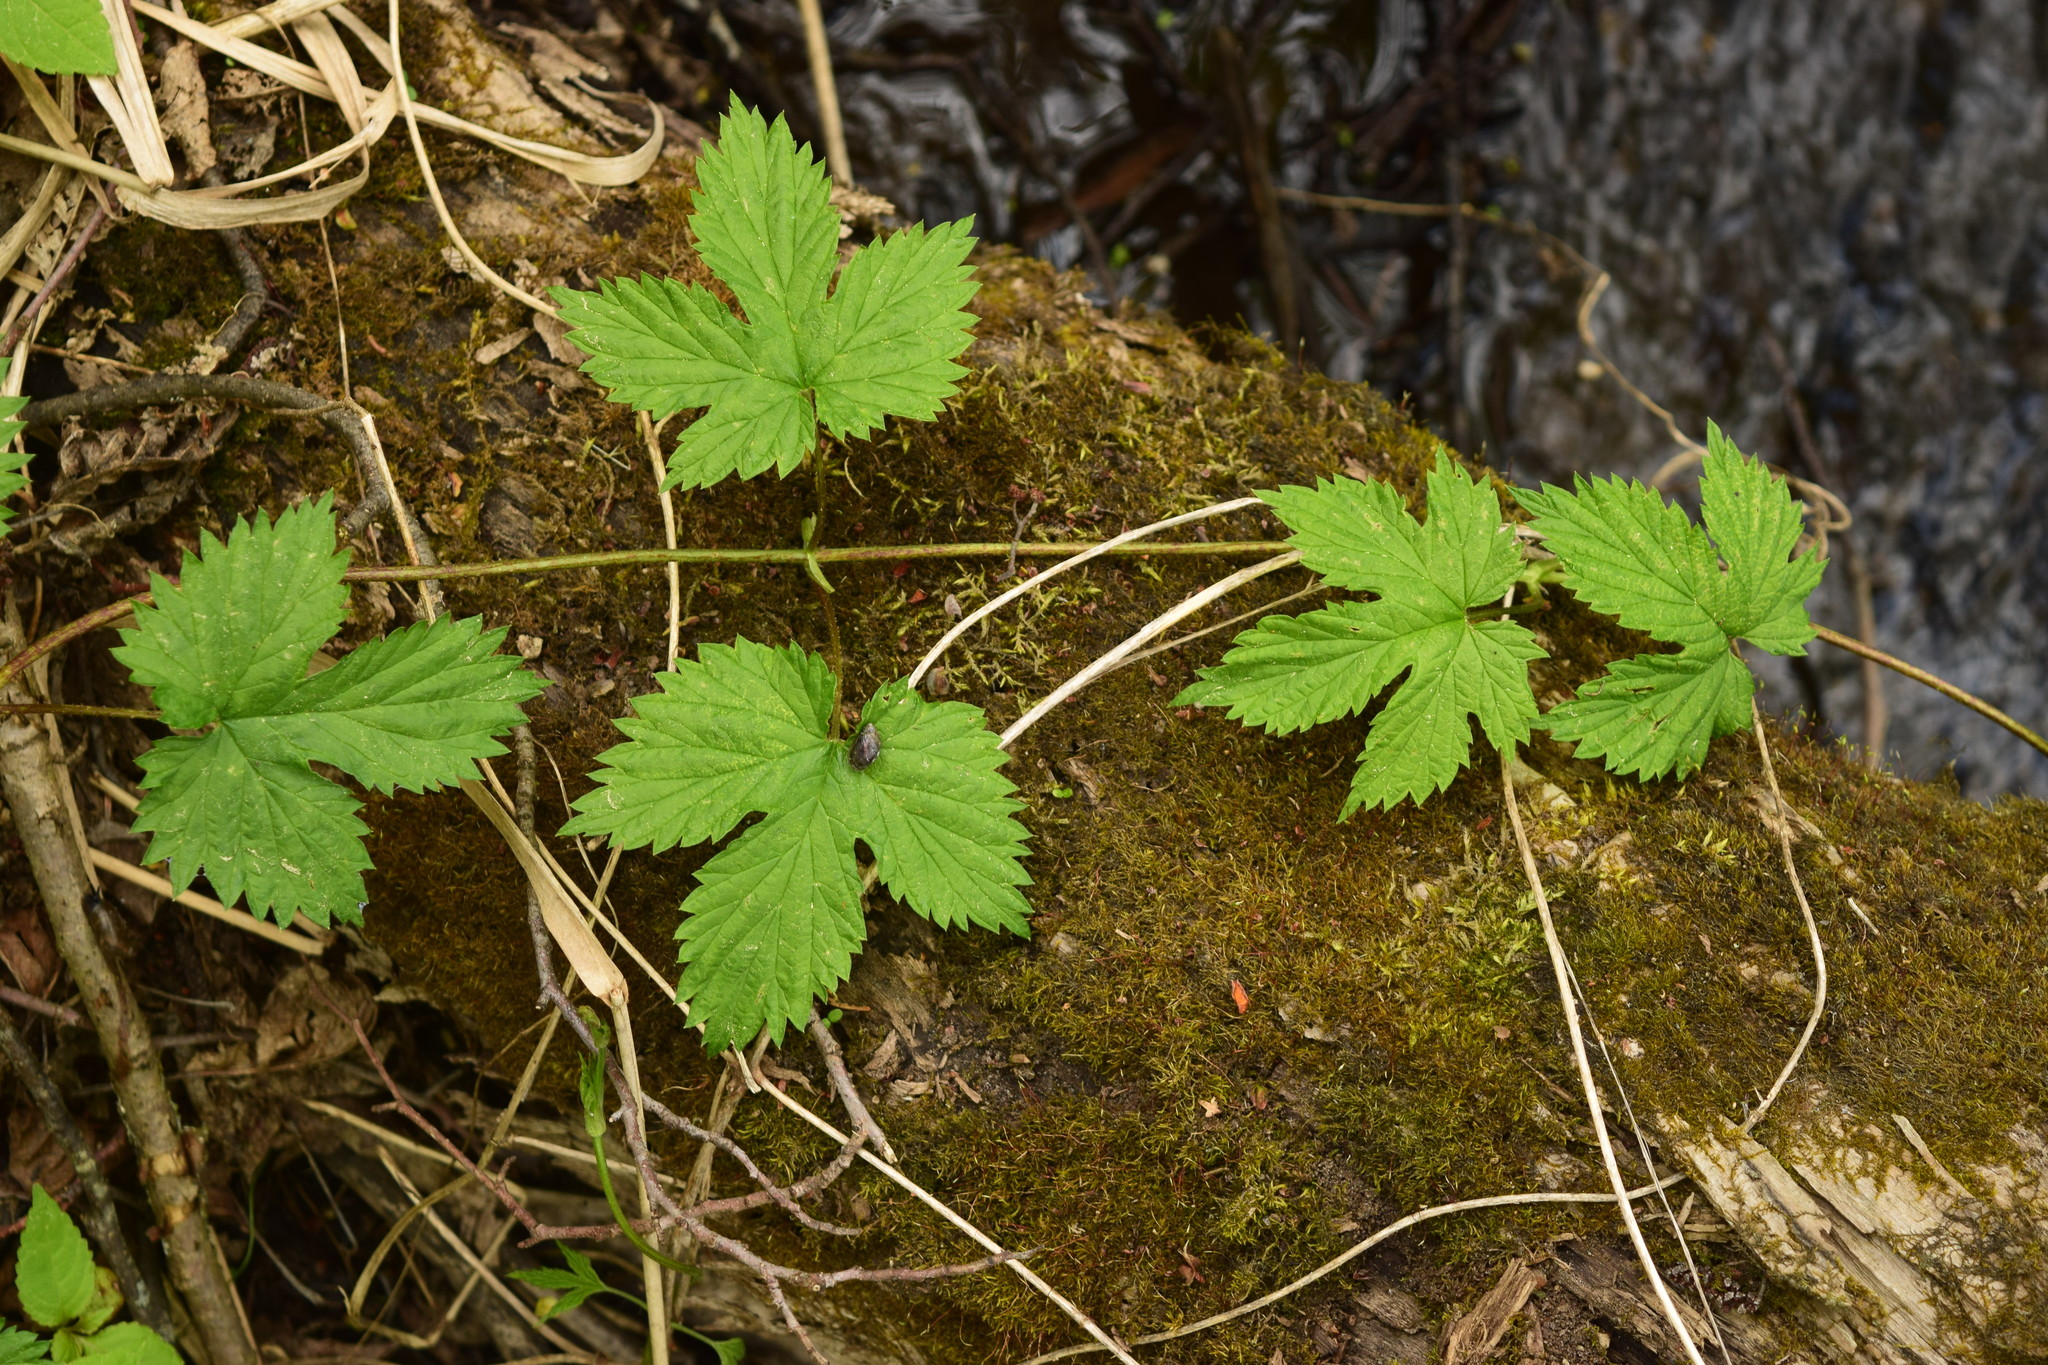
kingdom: Plantae
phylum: Tracheophyta
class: Magnoliopsida
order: Rosales
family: Cannabaceae
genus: Humulus
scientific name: Humulus lupulus
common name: Hop
